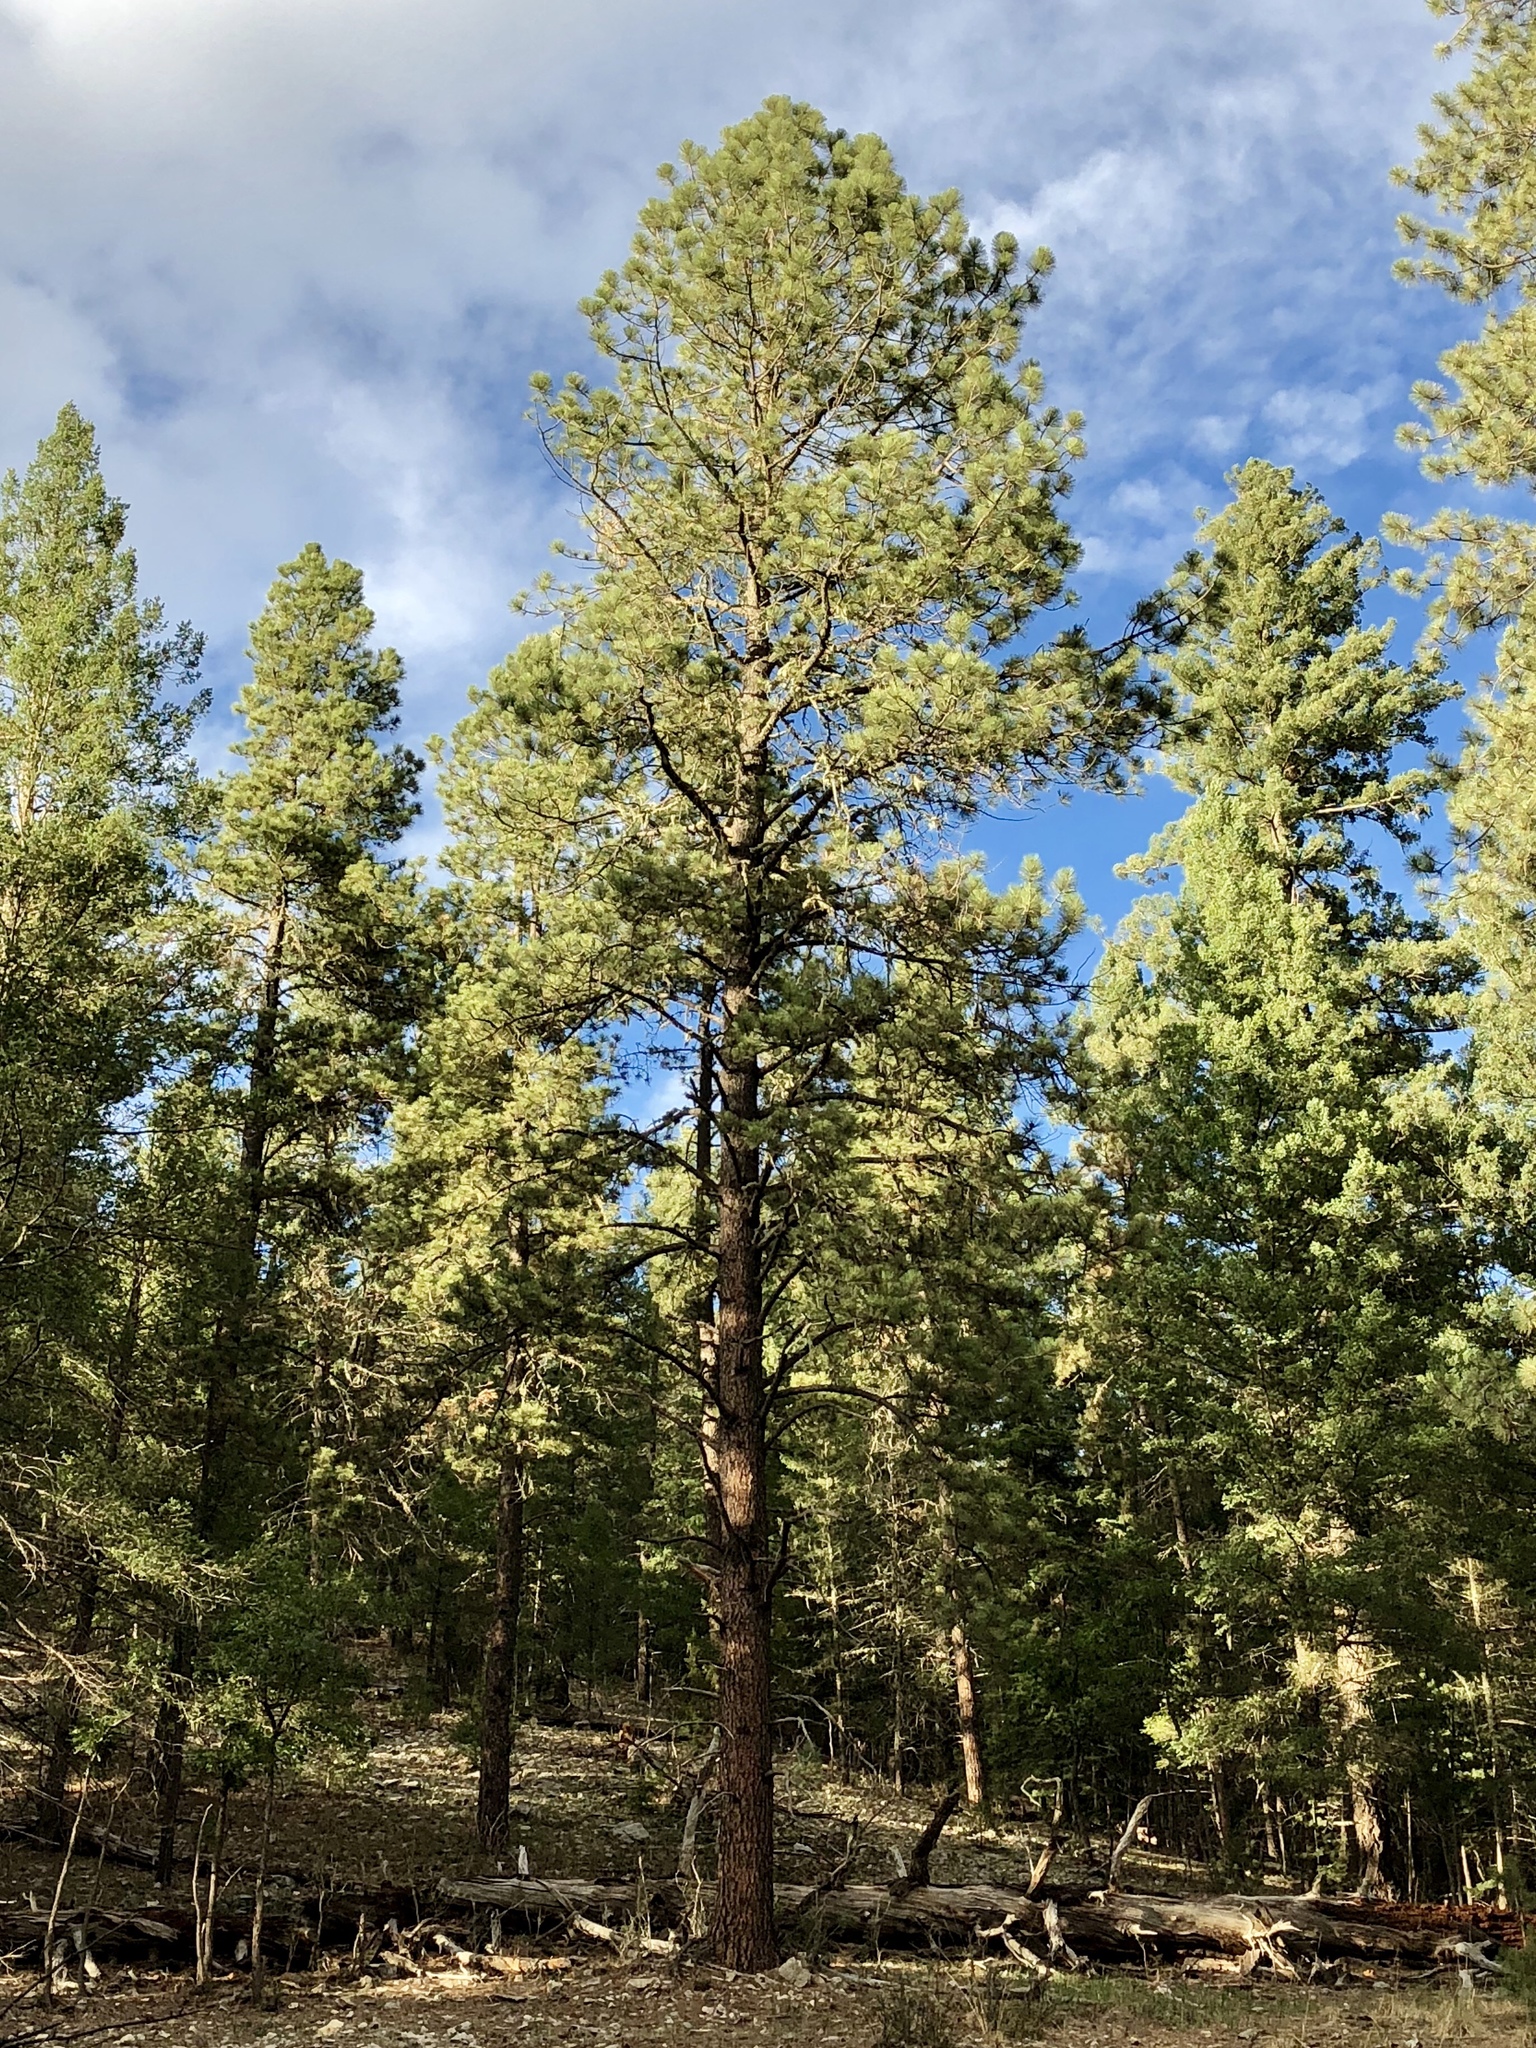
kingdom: Plantae
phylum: Tracheophyta
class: Pinopsida
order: Pinales
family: Pinaceae
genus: Pinus
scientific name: Pinus ponderosa
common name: Western yellow-pine
